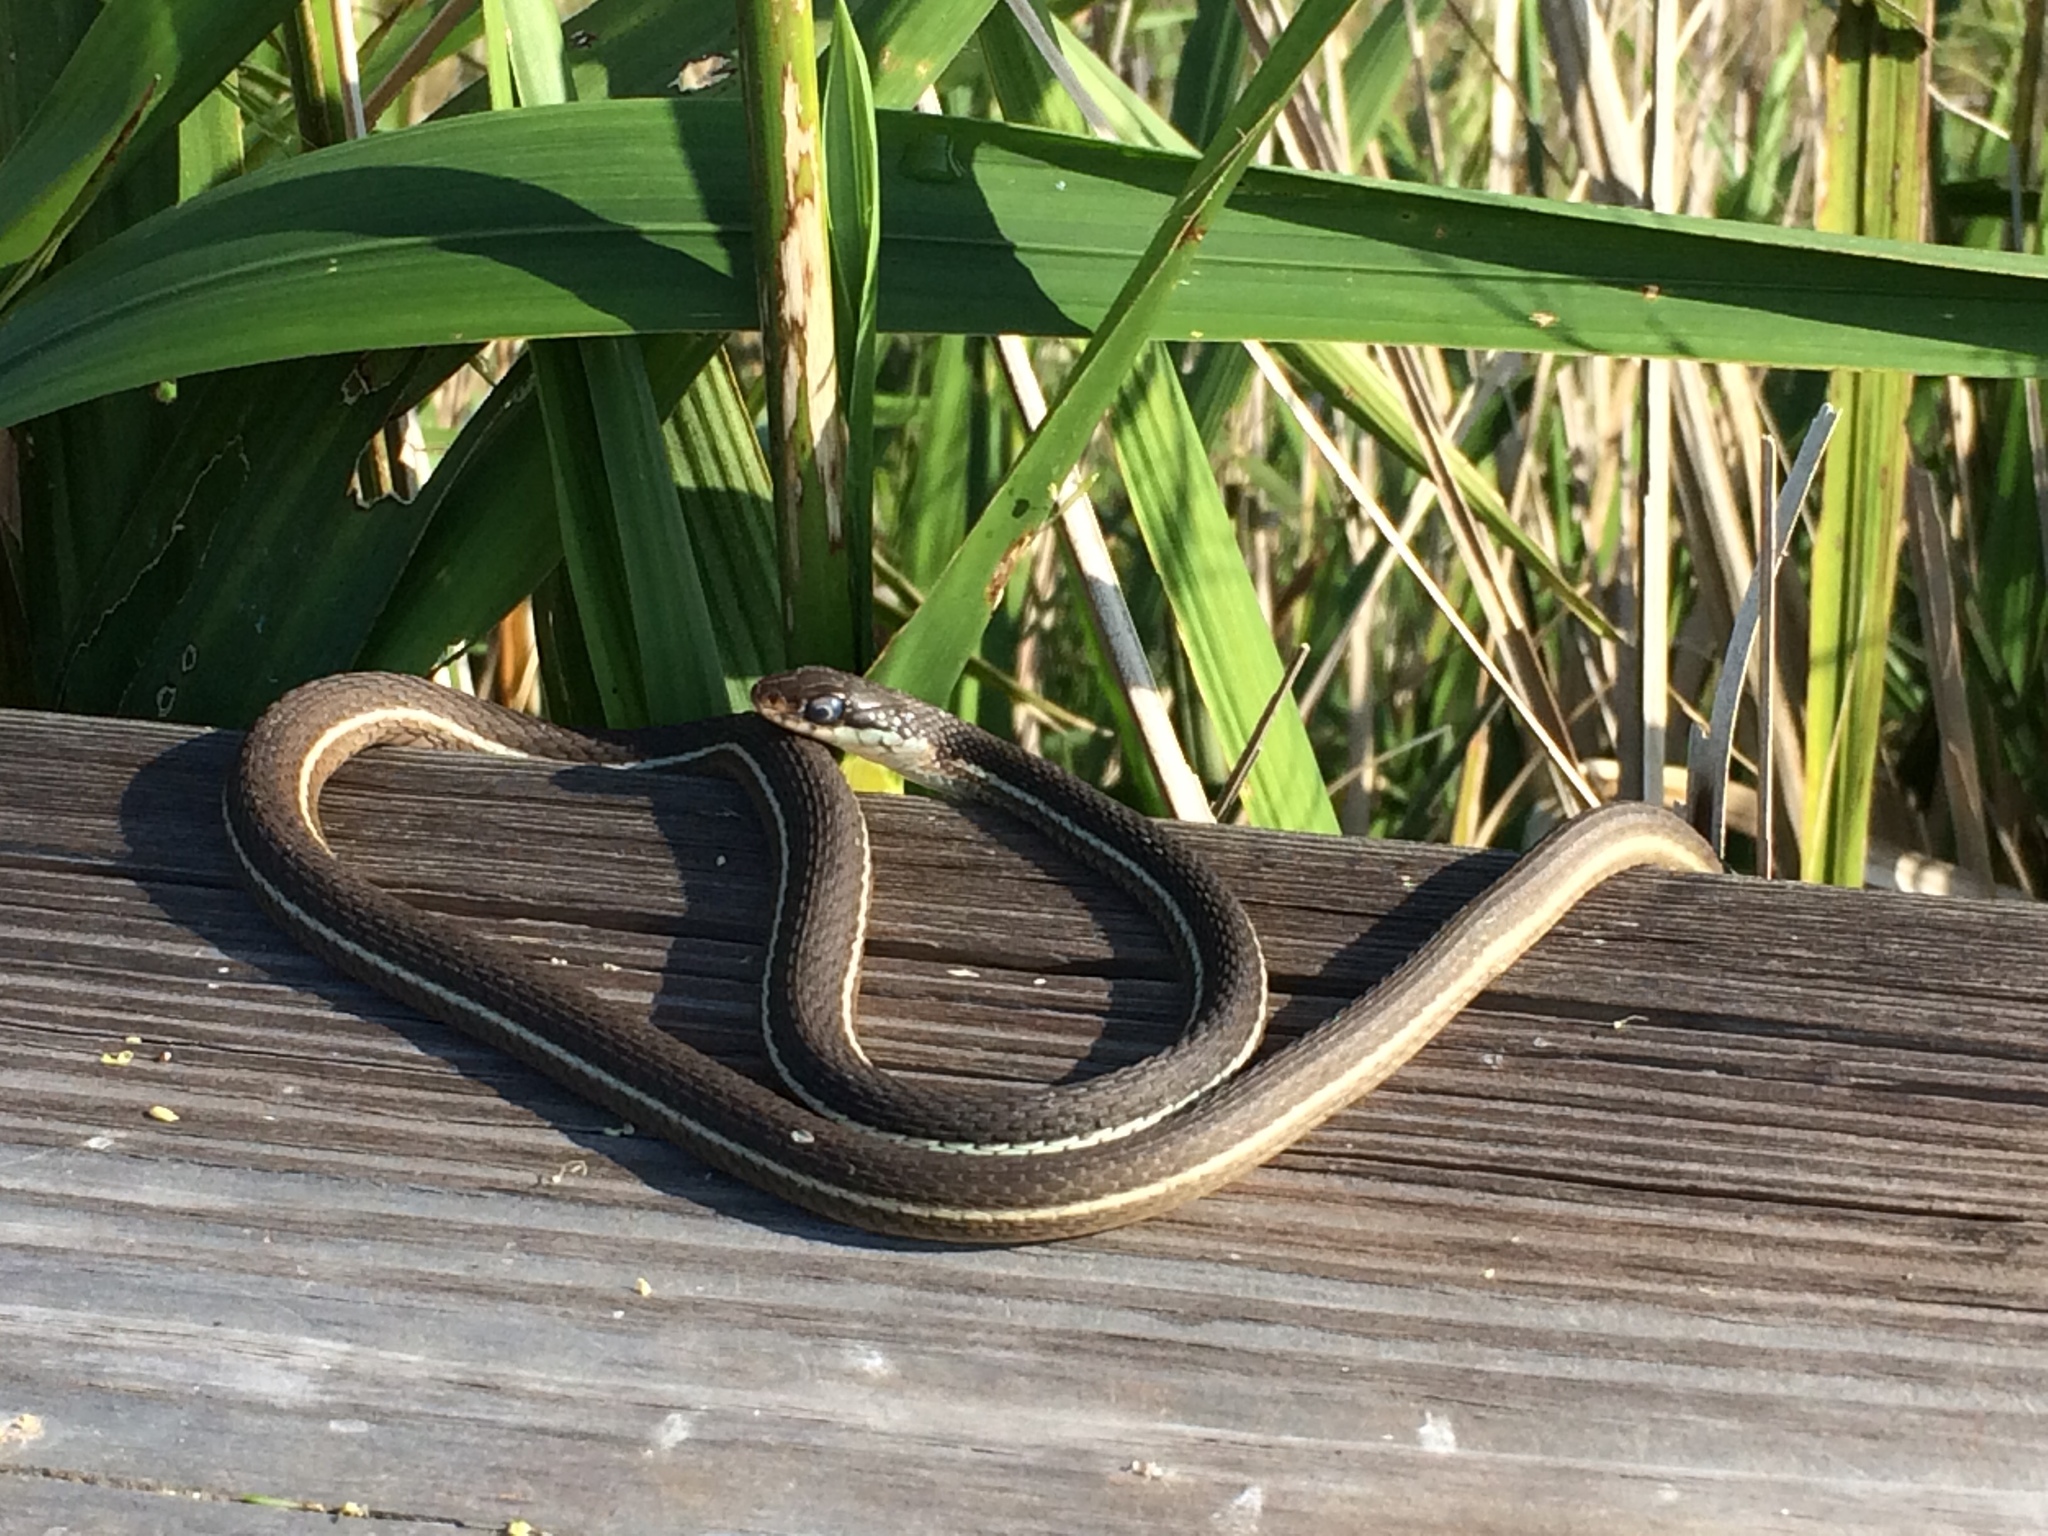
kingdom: Animalia
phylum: Chordata
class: Squamata
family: Colubridae
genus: Thamnophis
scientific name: Thamnophis saurita
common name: Eastern ribbonsnake
